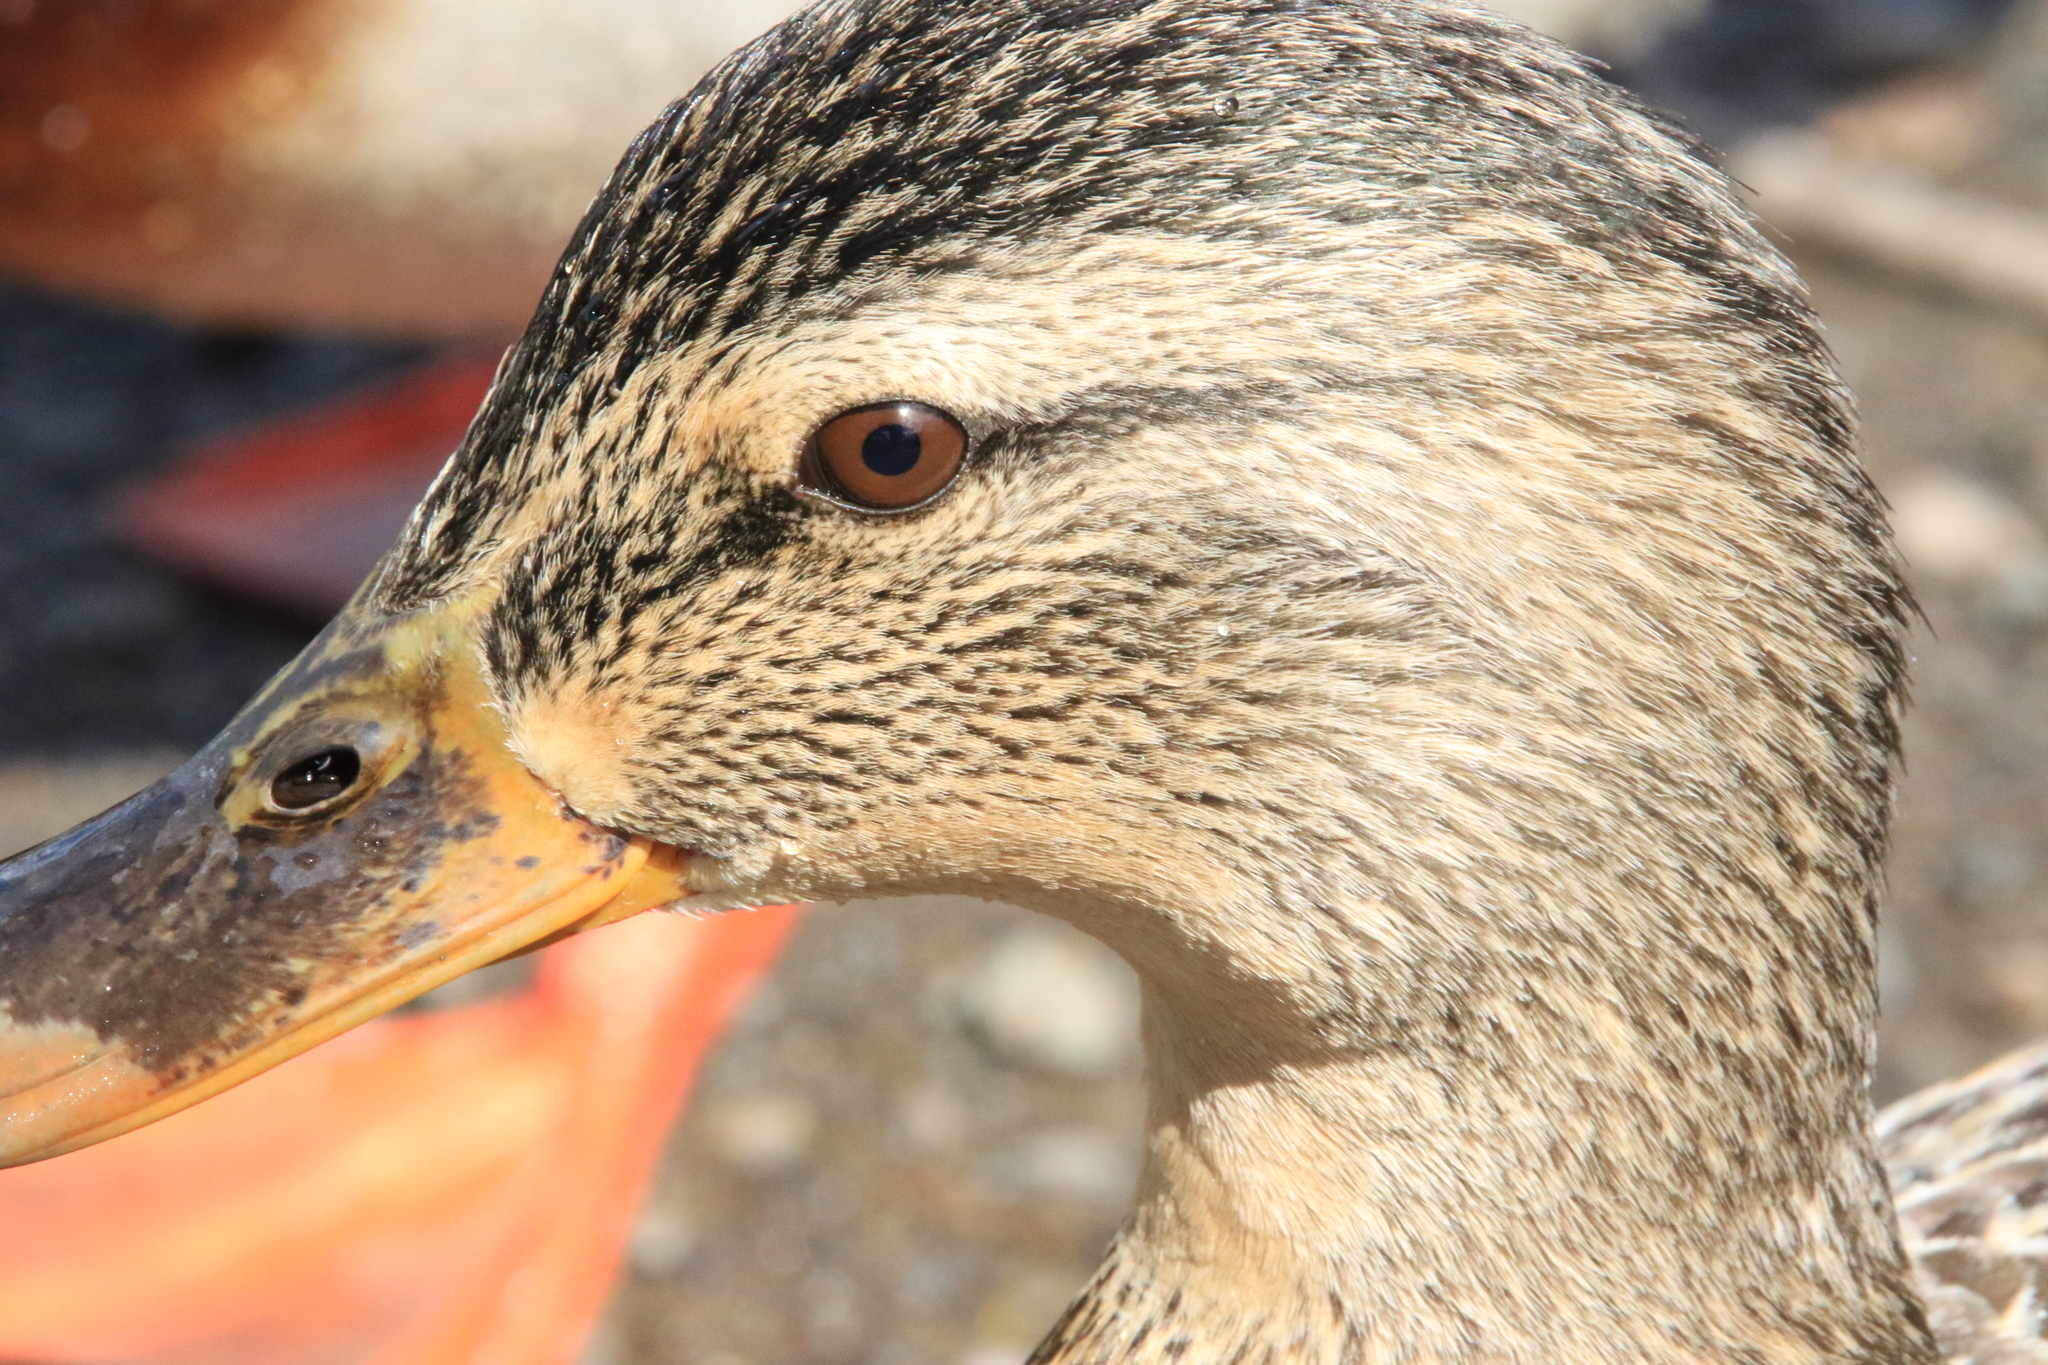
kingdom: Animalia
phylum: Chordata
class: Aves
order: Anseriformes
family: Anatidae
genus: Anas
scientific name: Anas platyrhynchos
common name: Mallard
